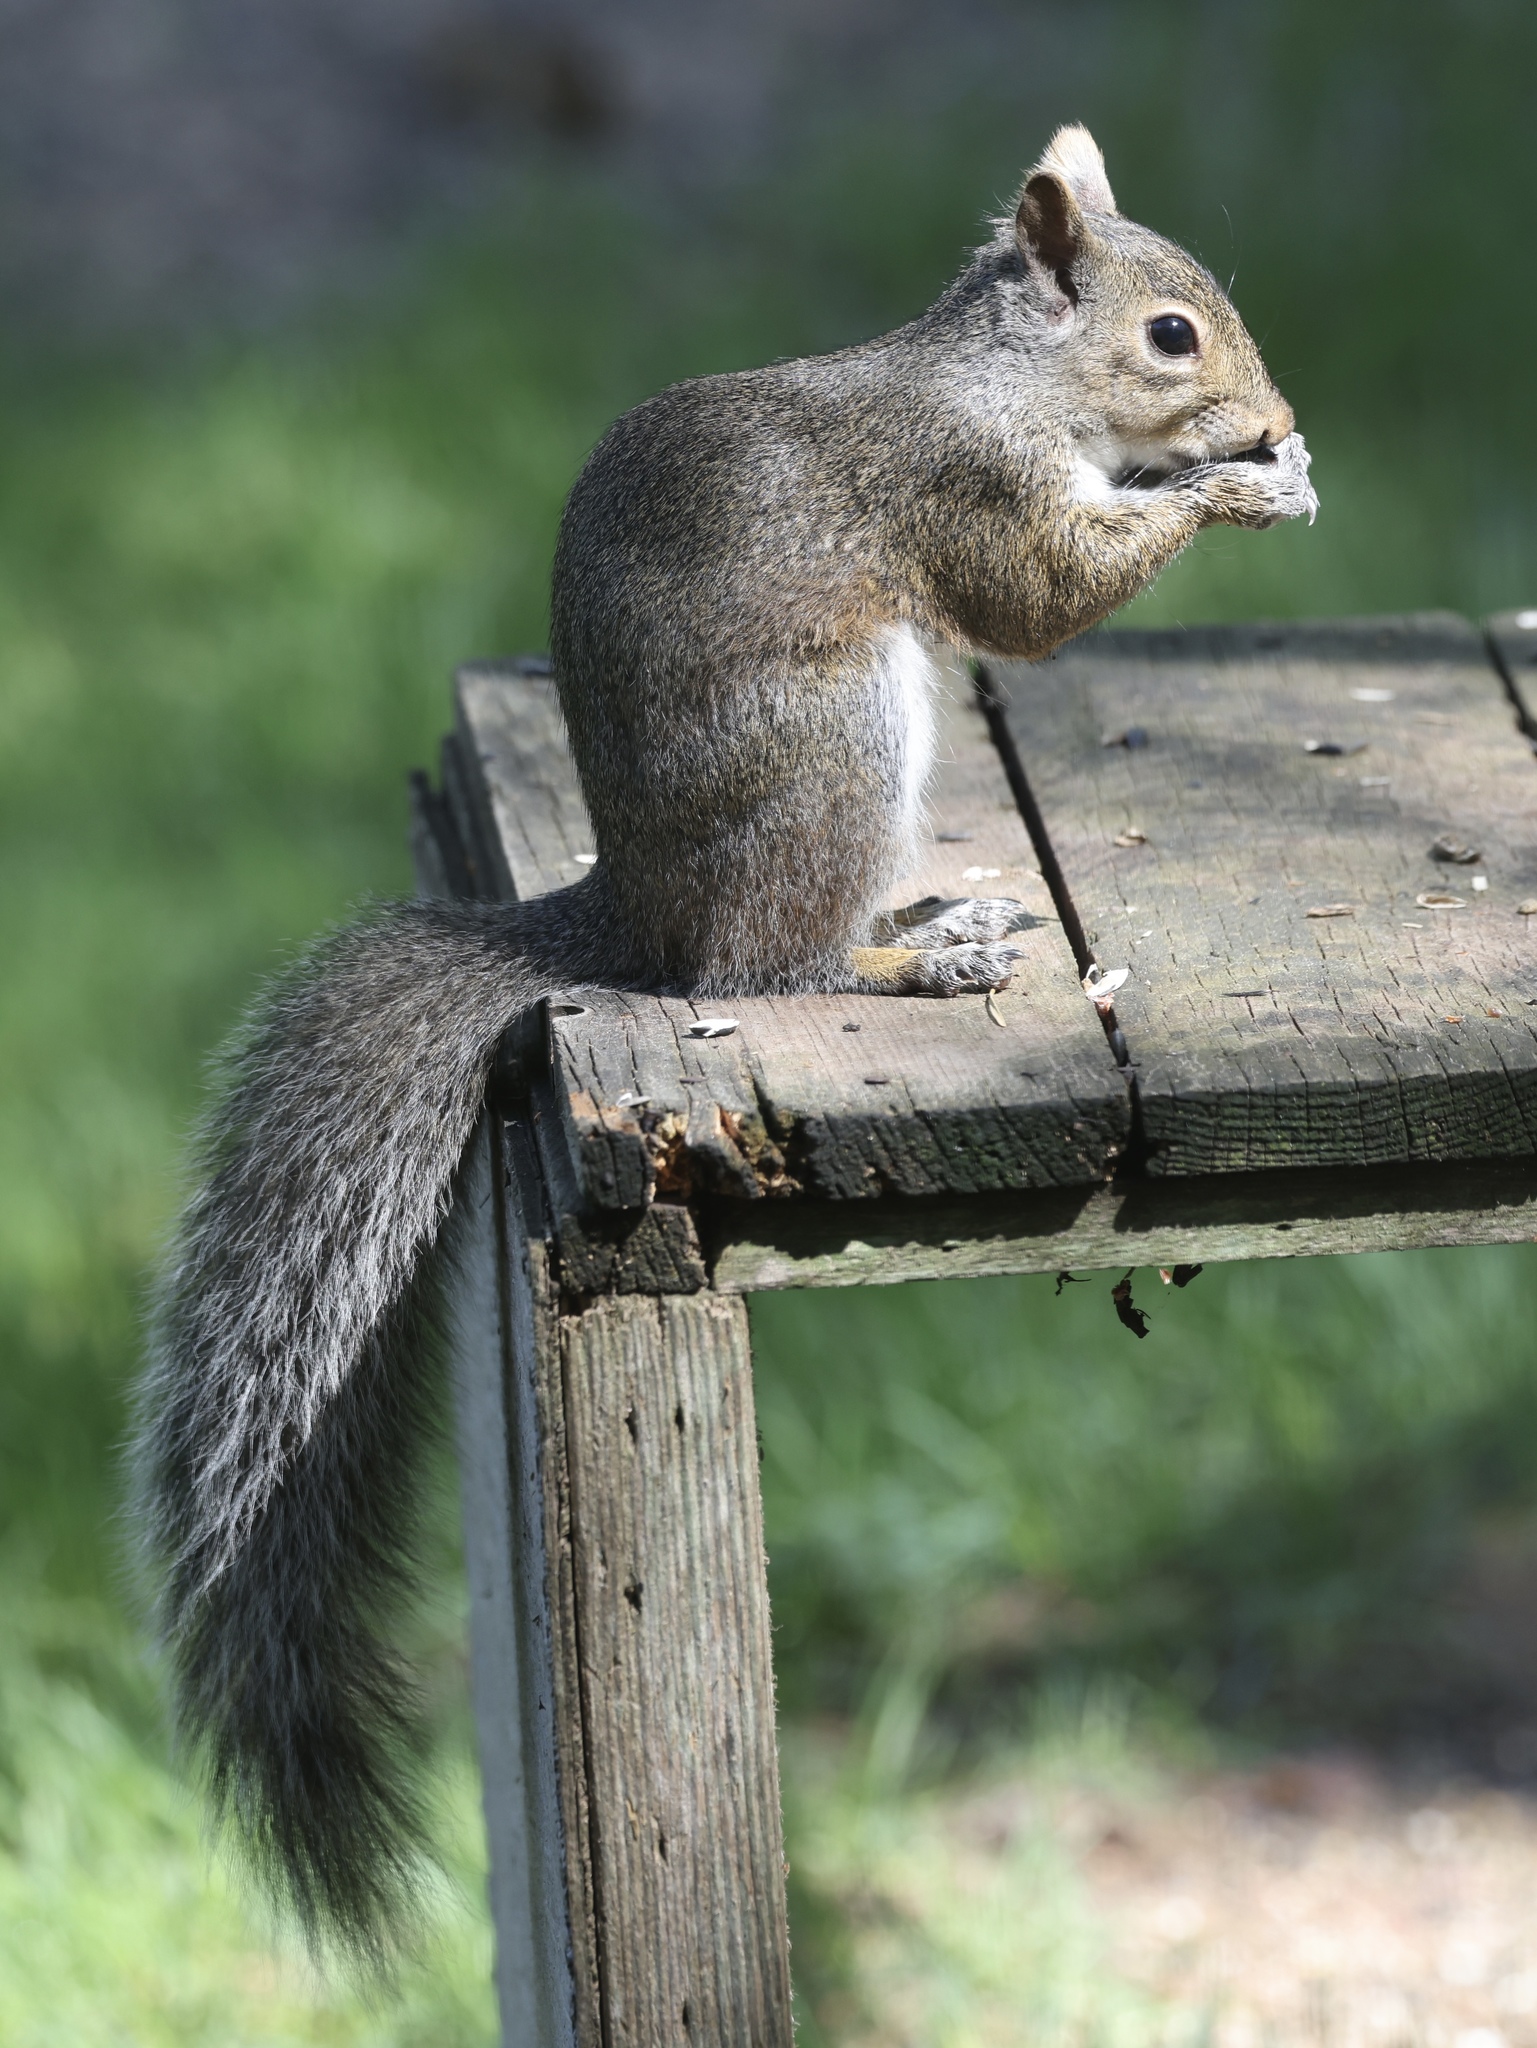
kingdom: Animalia
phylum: Chordata
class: Mammalia
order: Rodentia
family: Sciuridae
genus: Sciurus
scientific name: Sciurus carolinensis
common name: Eastern gray squirrel
